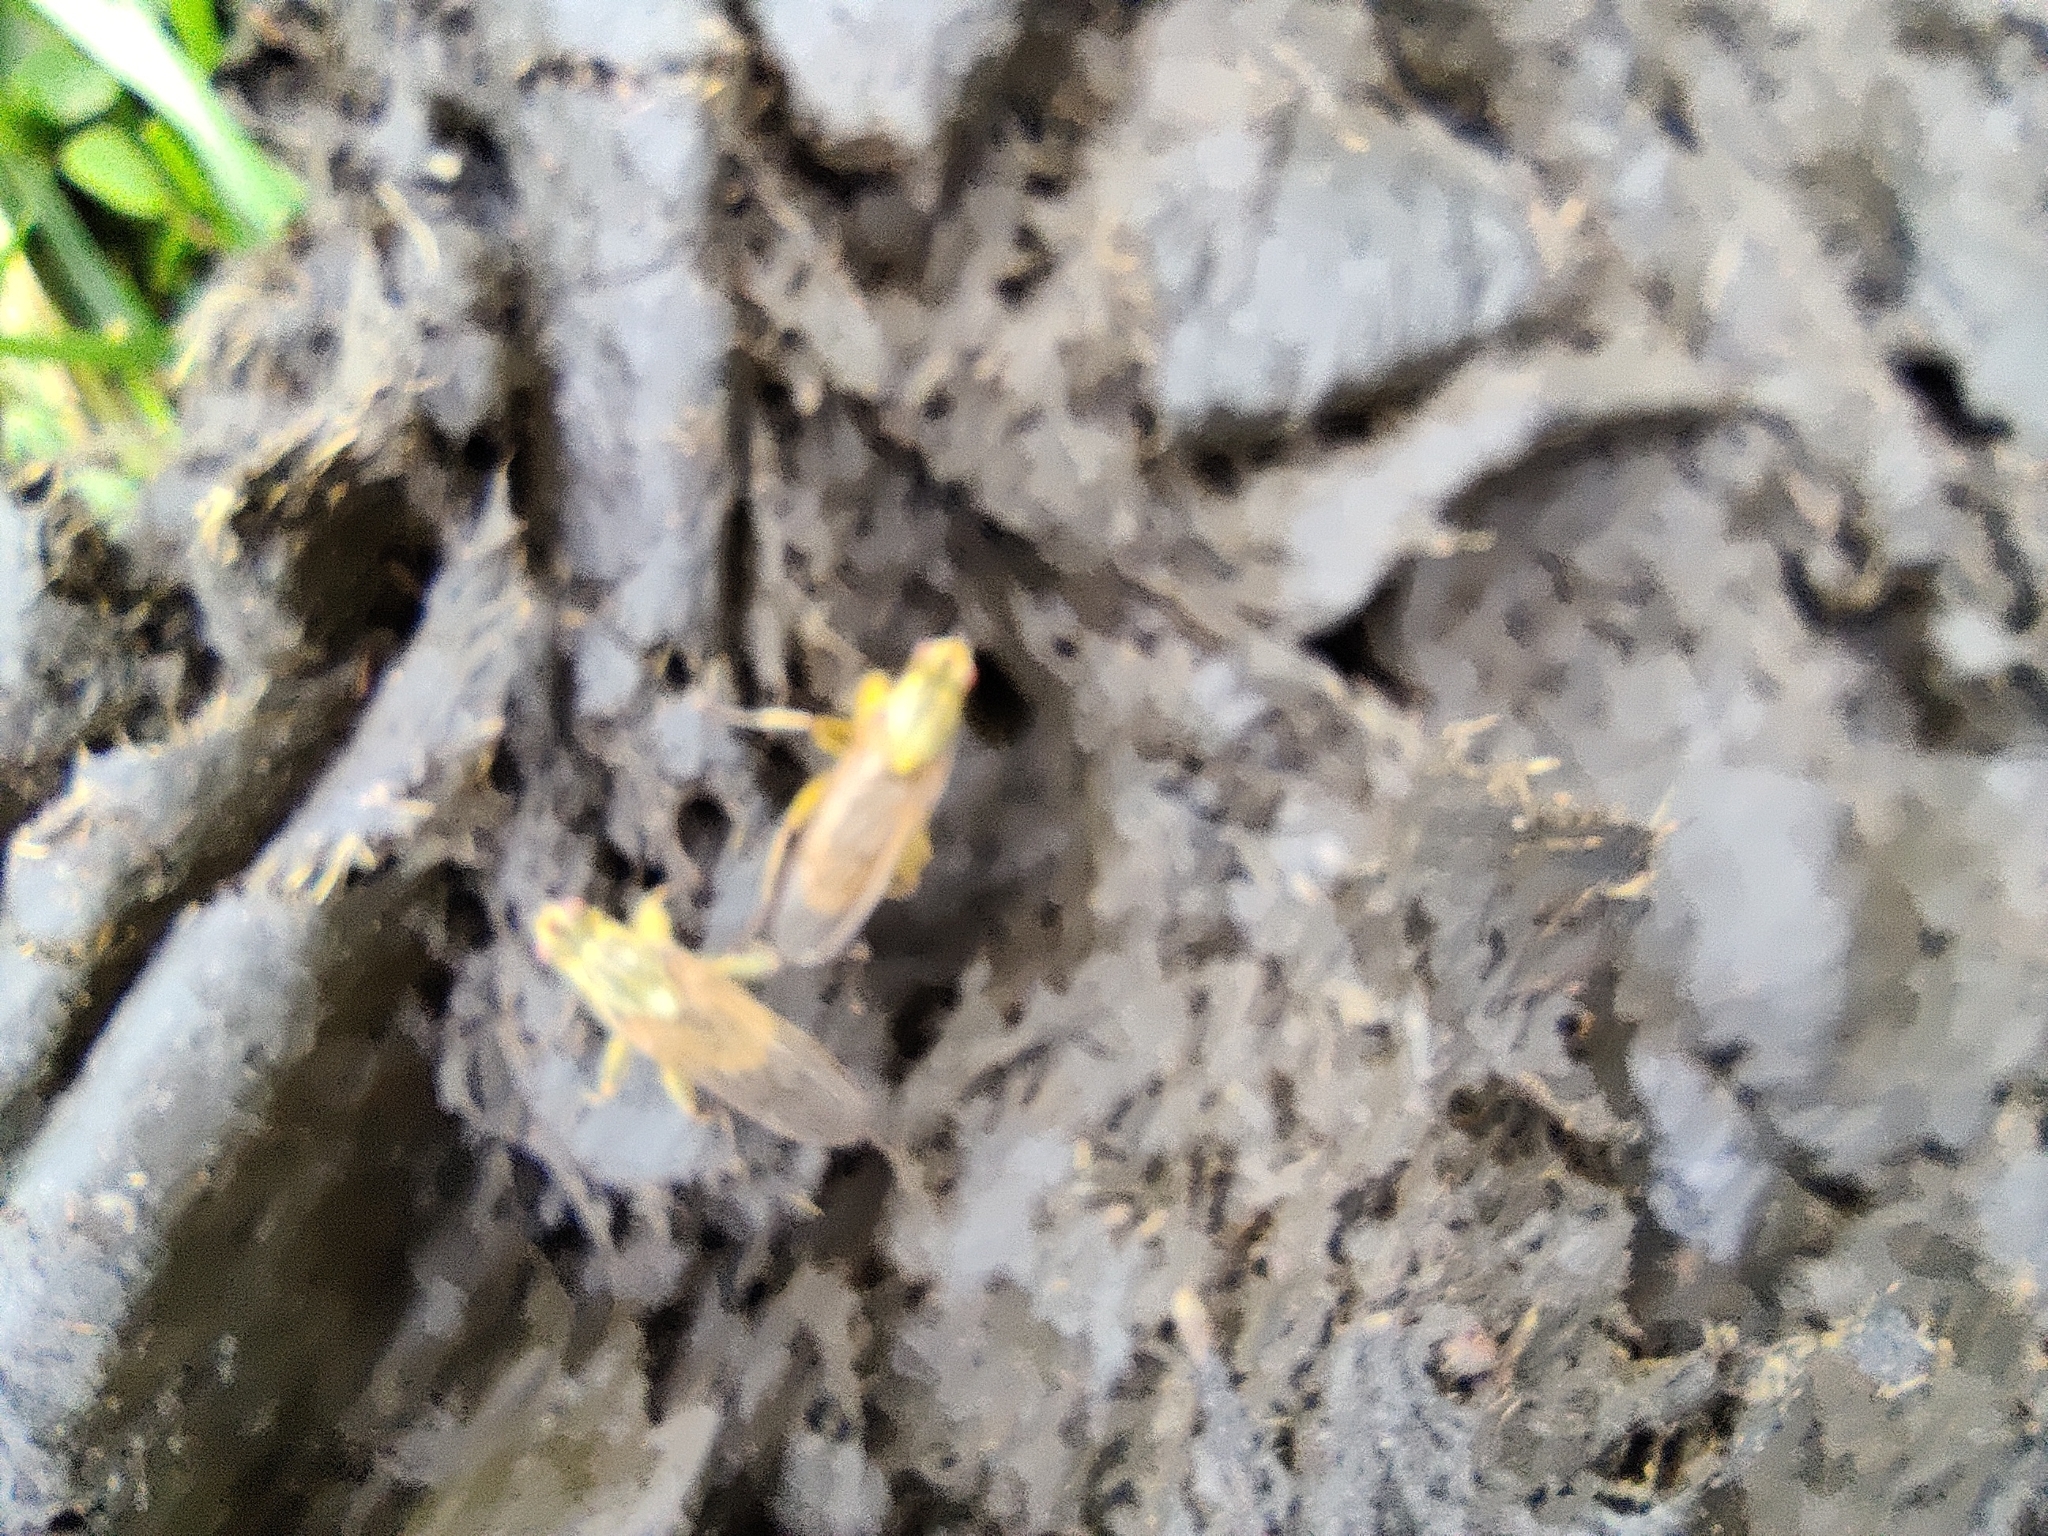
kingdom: Animalia
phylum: Arthropoda
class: Insecta
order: Diptera
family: Scathophagidae
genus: Scathophaga
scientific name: Scathophaga stercoraria
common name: Yellow dung fly
